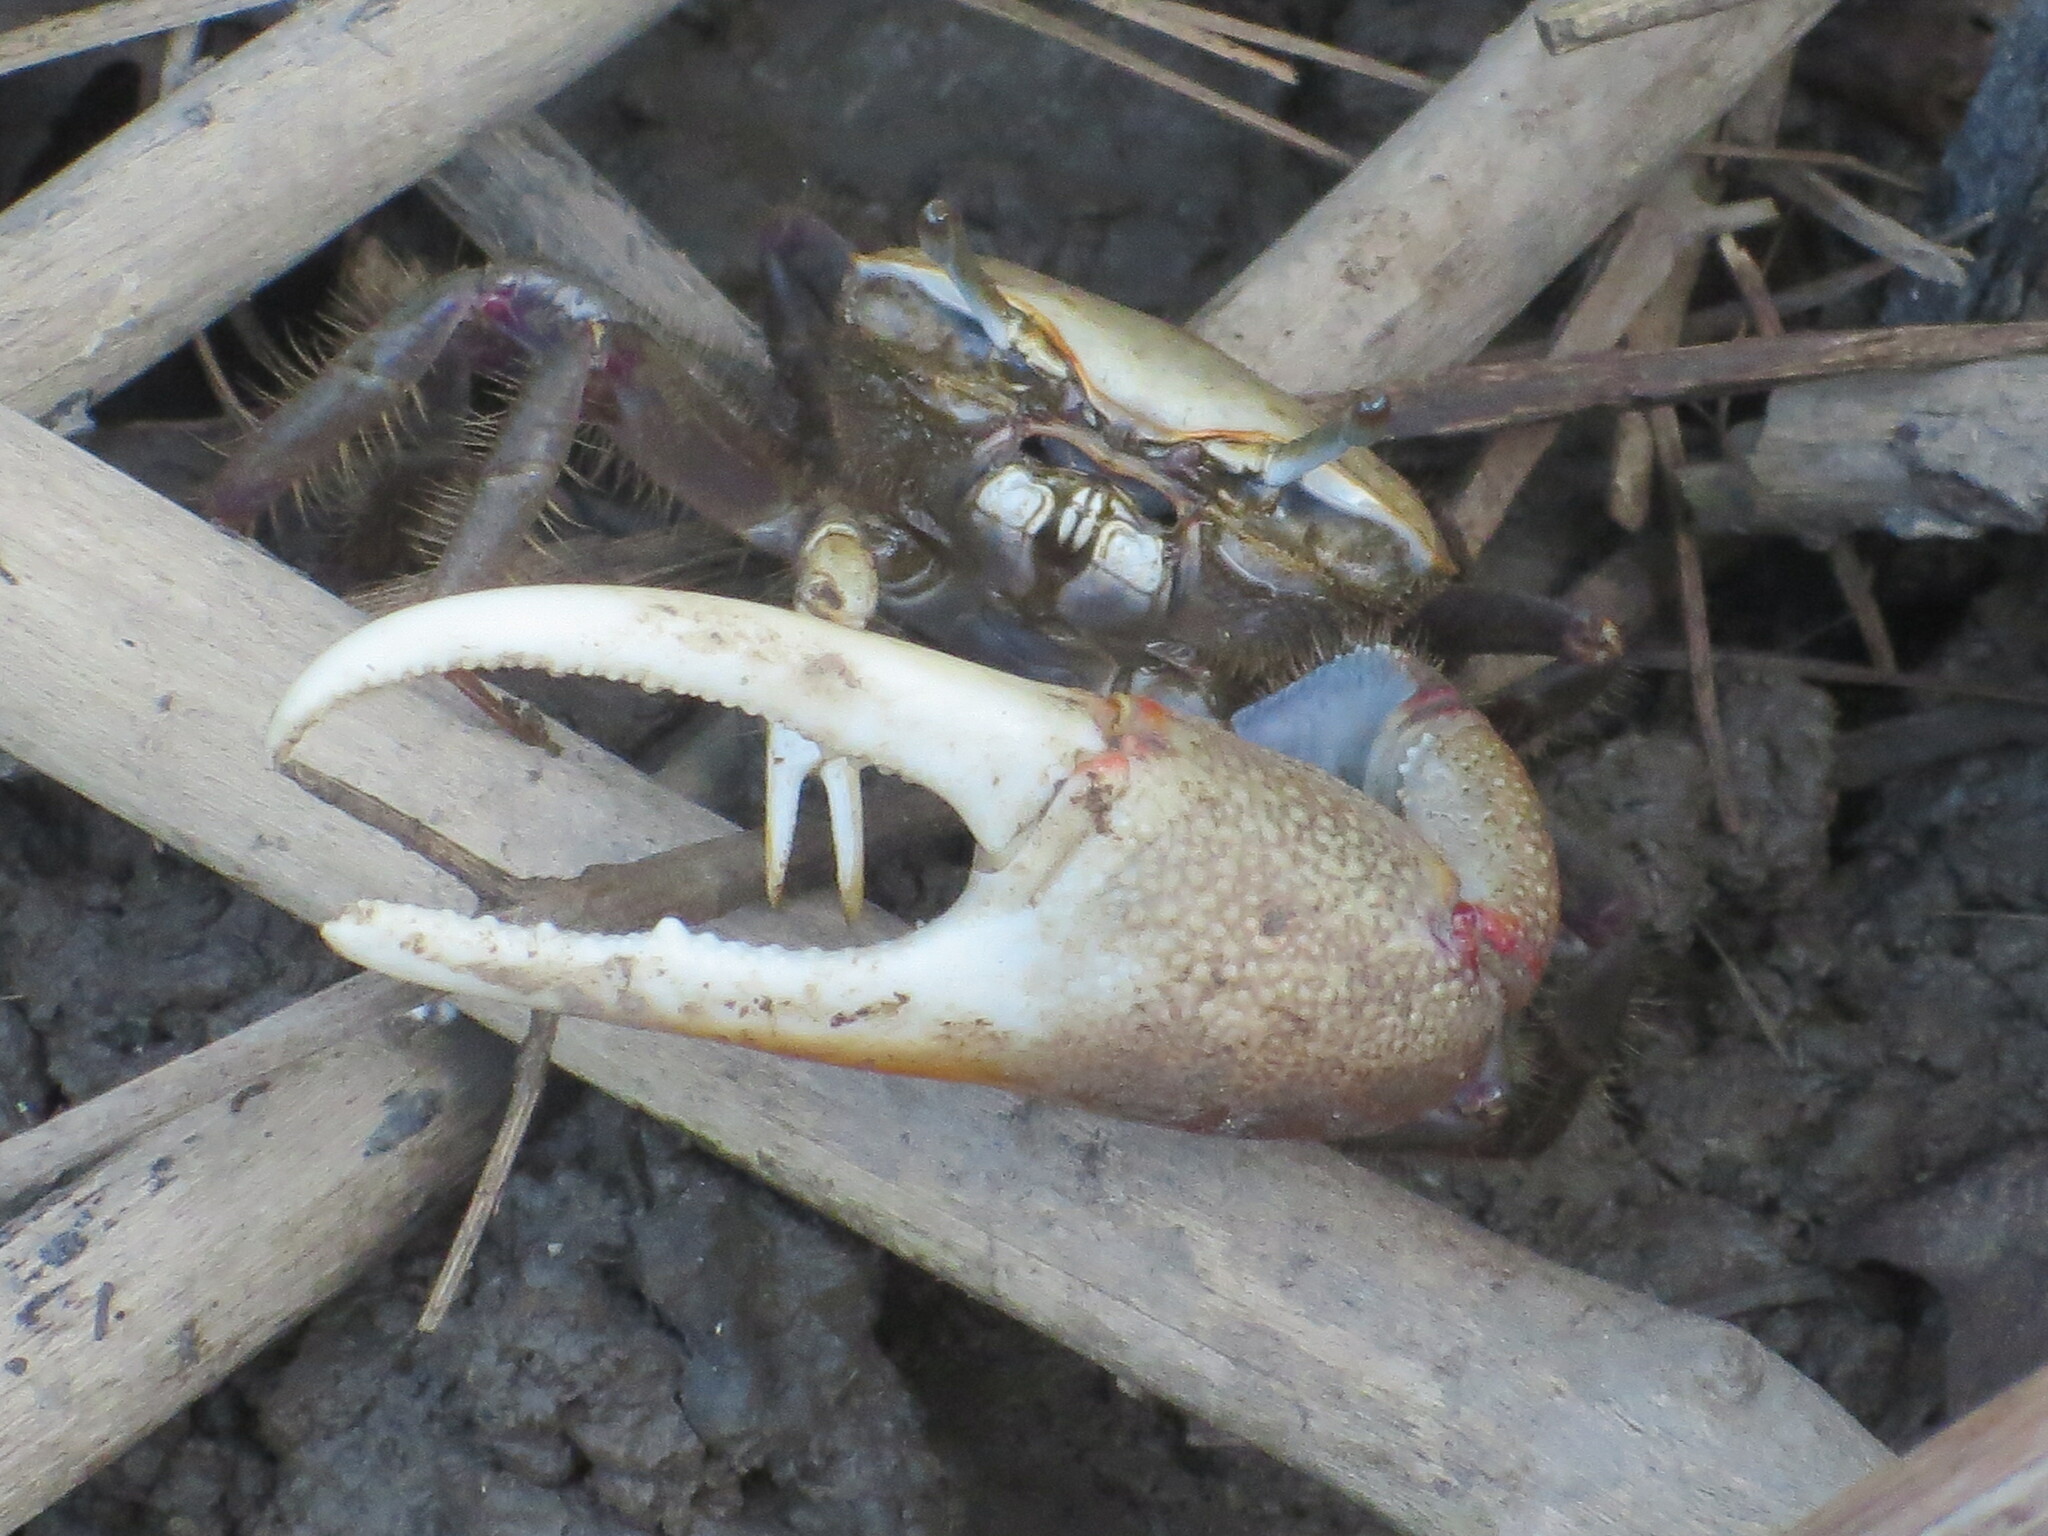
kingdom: Animalia
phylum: Arthropoda
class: Malacostraca
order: Decapoda
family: Ocypodidae
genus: Minuca
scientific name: Minuca minax
